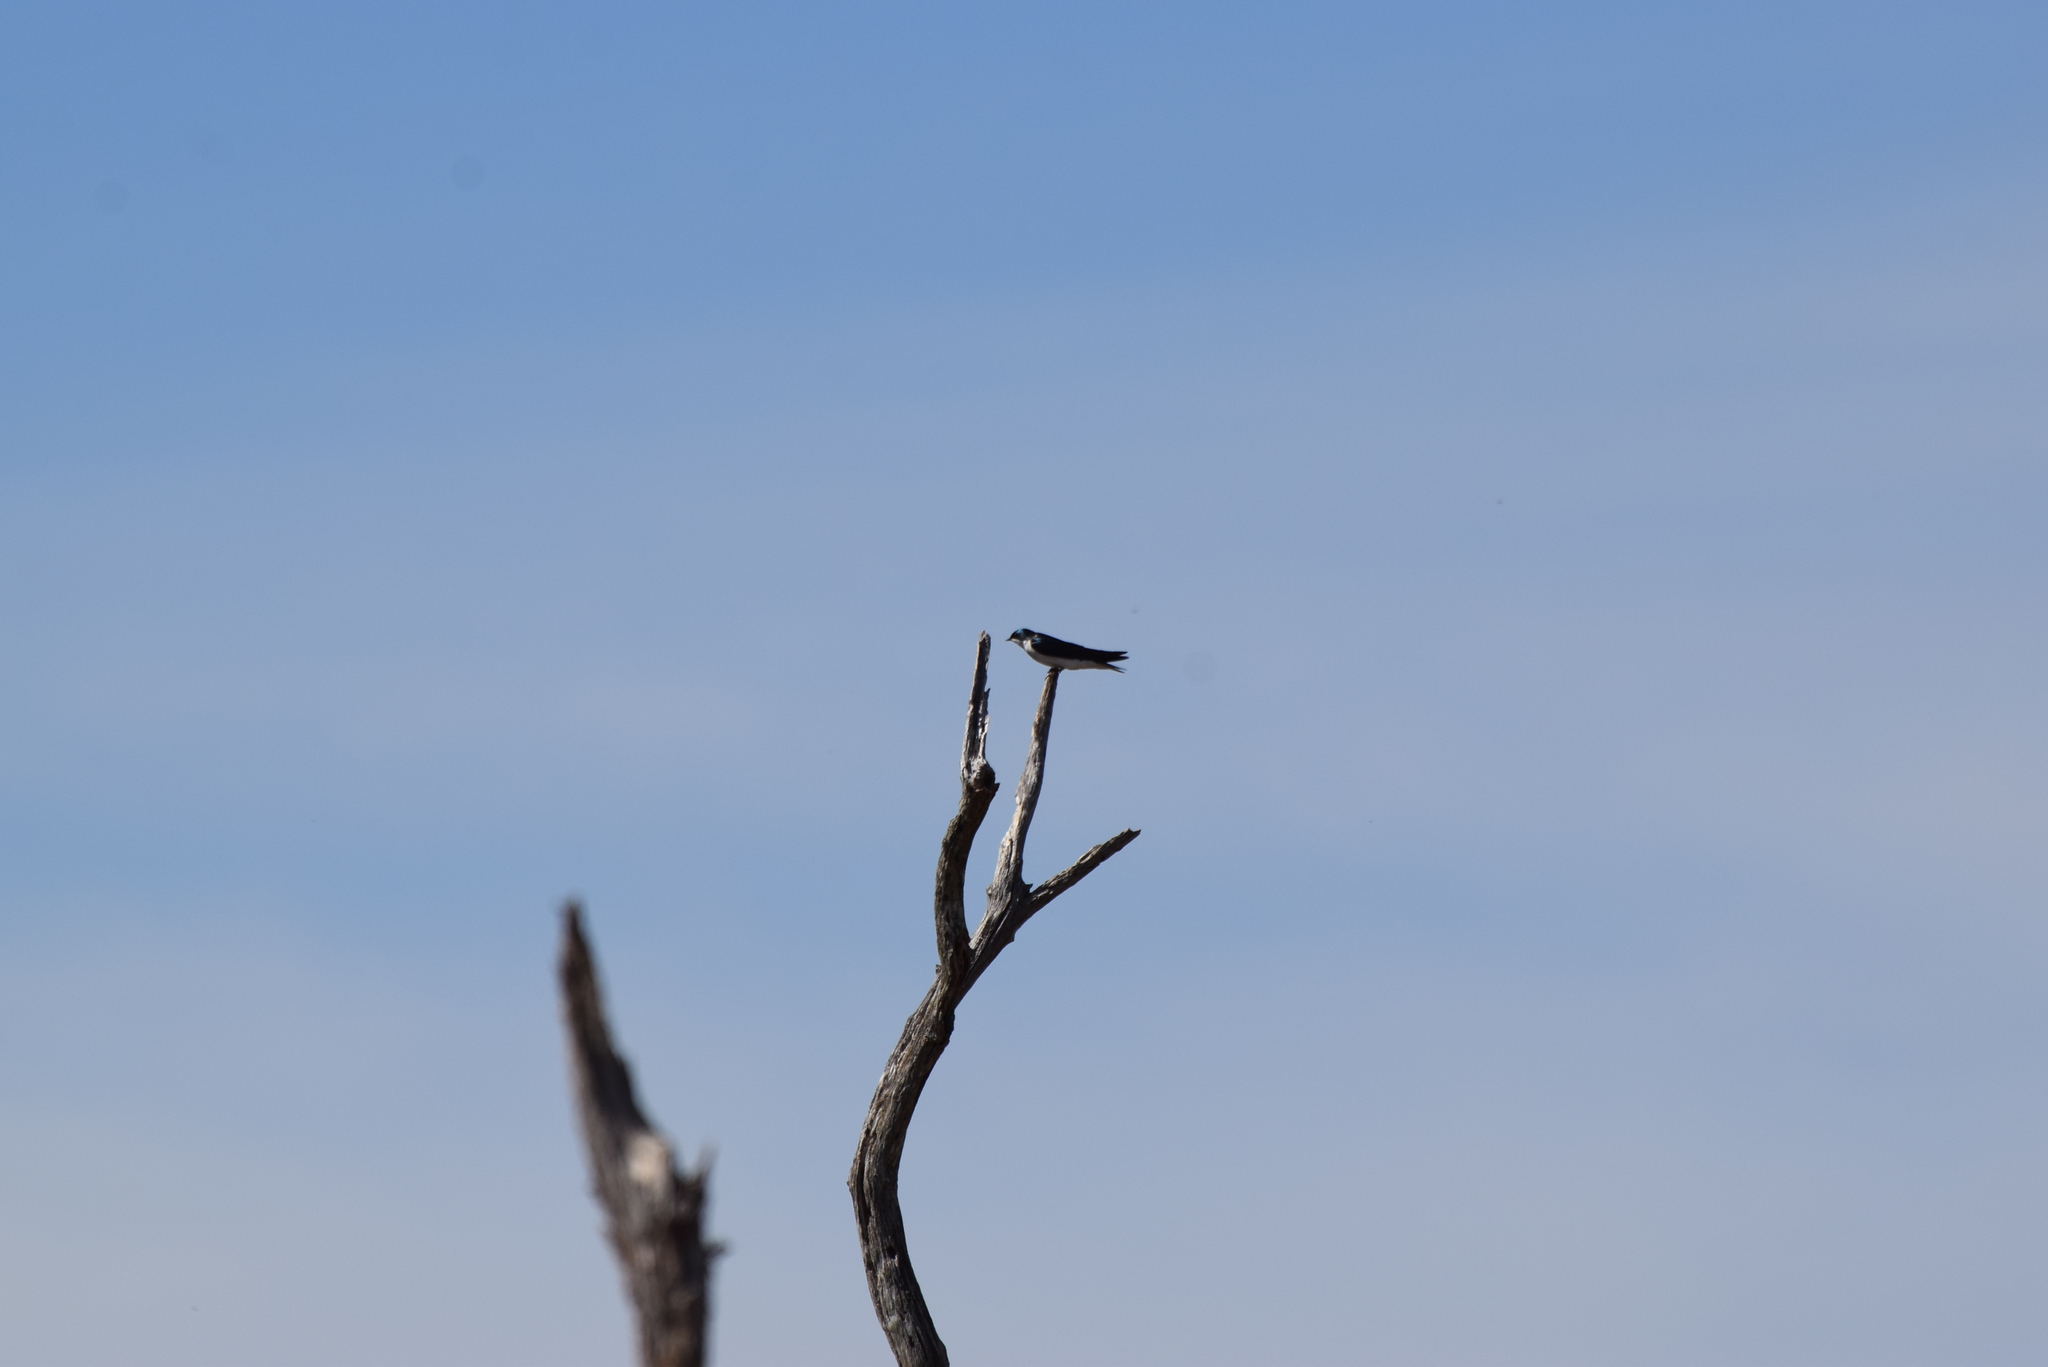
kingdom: Animalia
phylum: Chordata
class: Aves
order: Passeriformes
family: Hirundinidae
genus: Tachycineta
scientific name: Tachycineta bicolor
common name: Tree swallow
